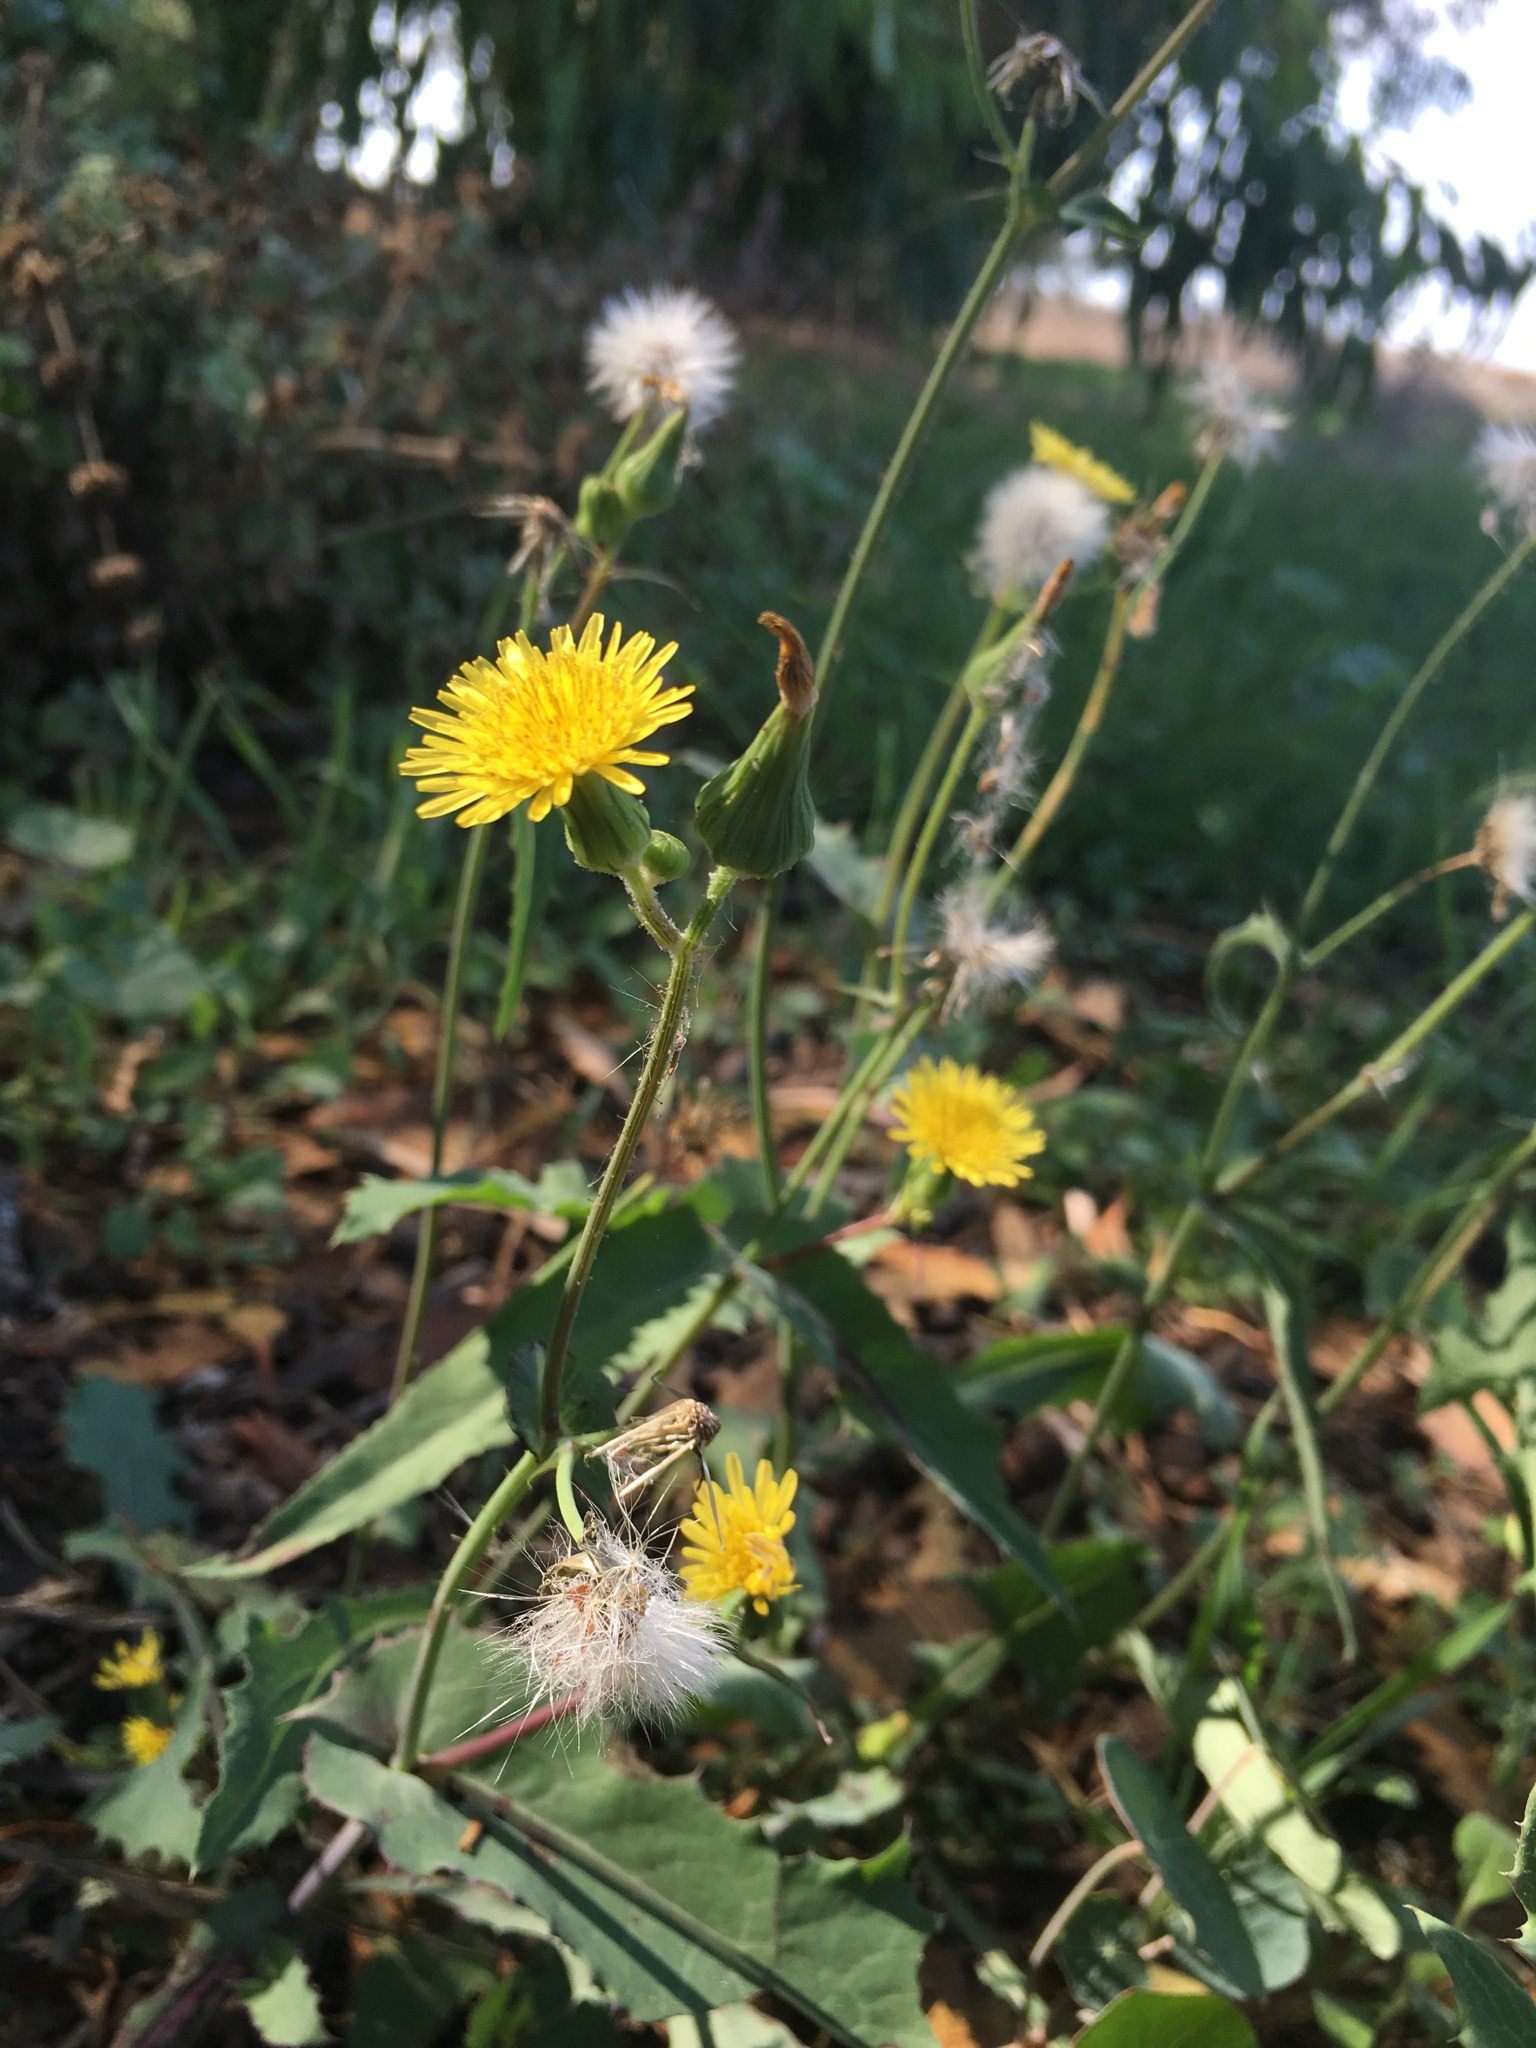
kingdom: Plantae
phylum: Tracheophyta
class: Magnoliopsida
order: Asterales
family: Asteraceae
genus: Sonchus
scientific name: Sonchus oleraceus
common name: Common sowthistle
